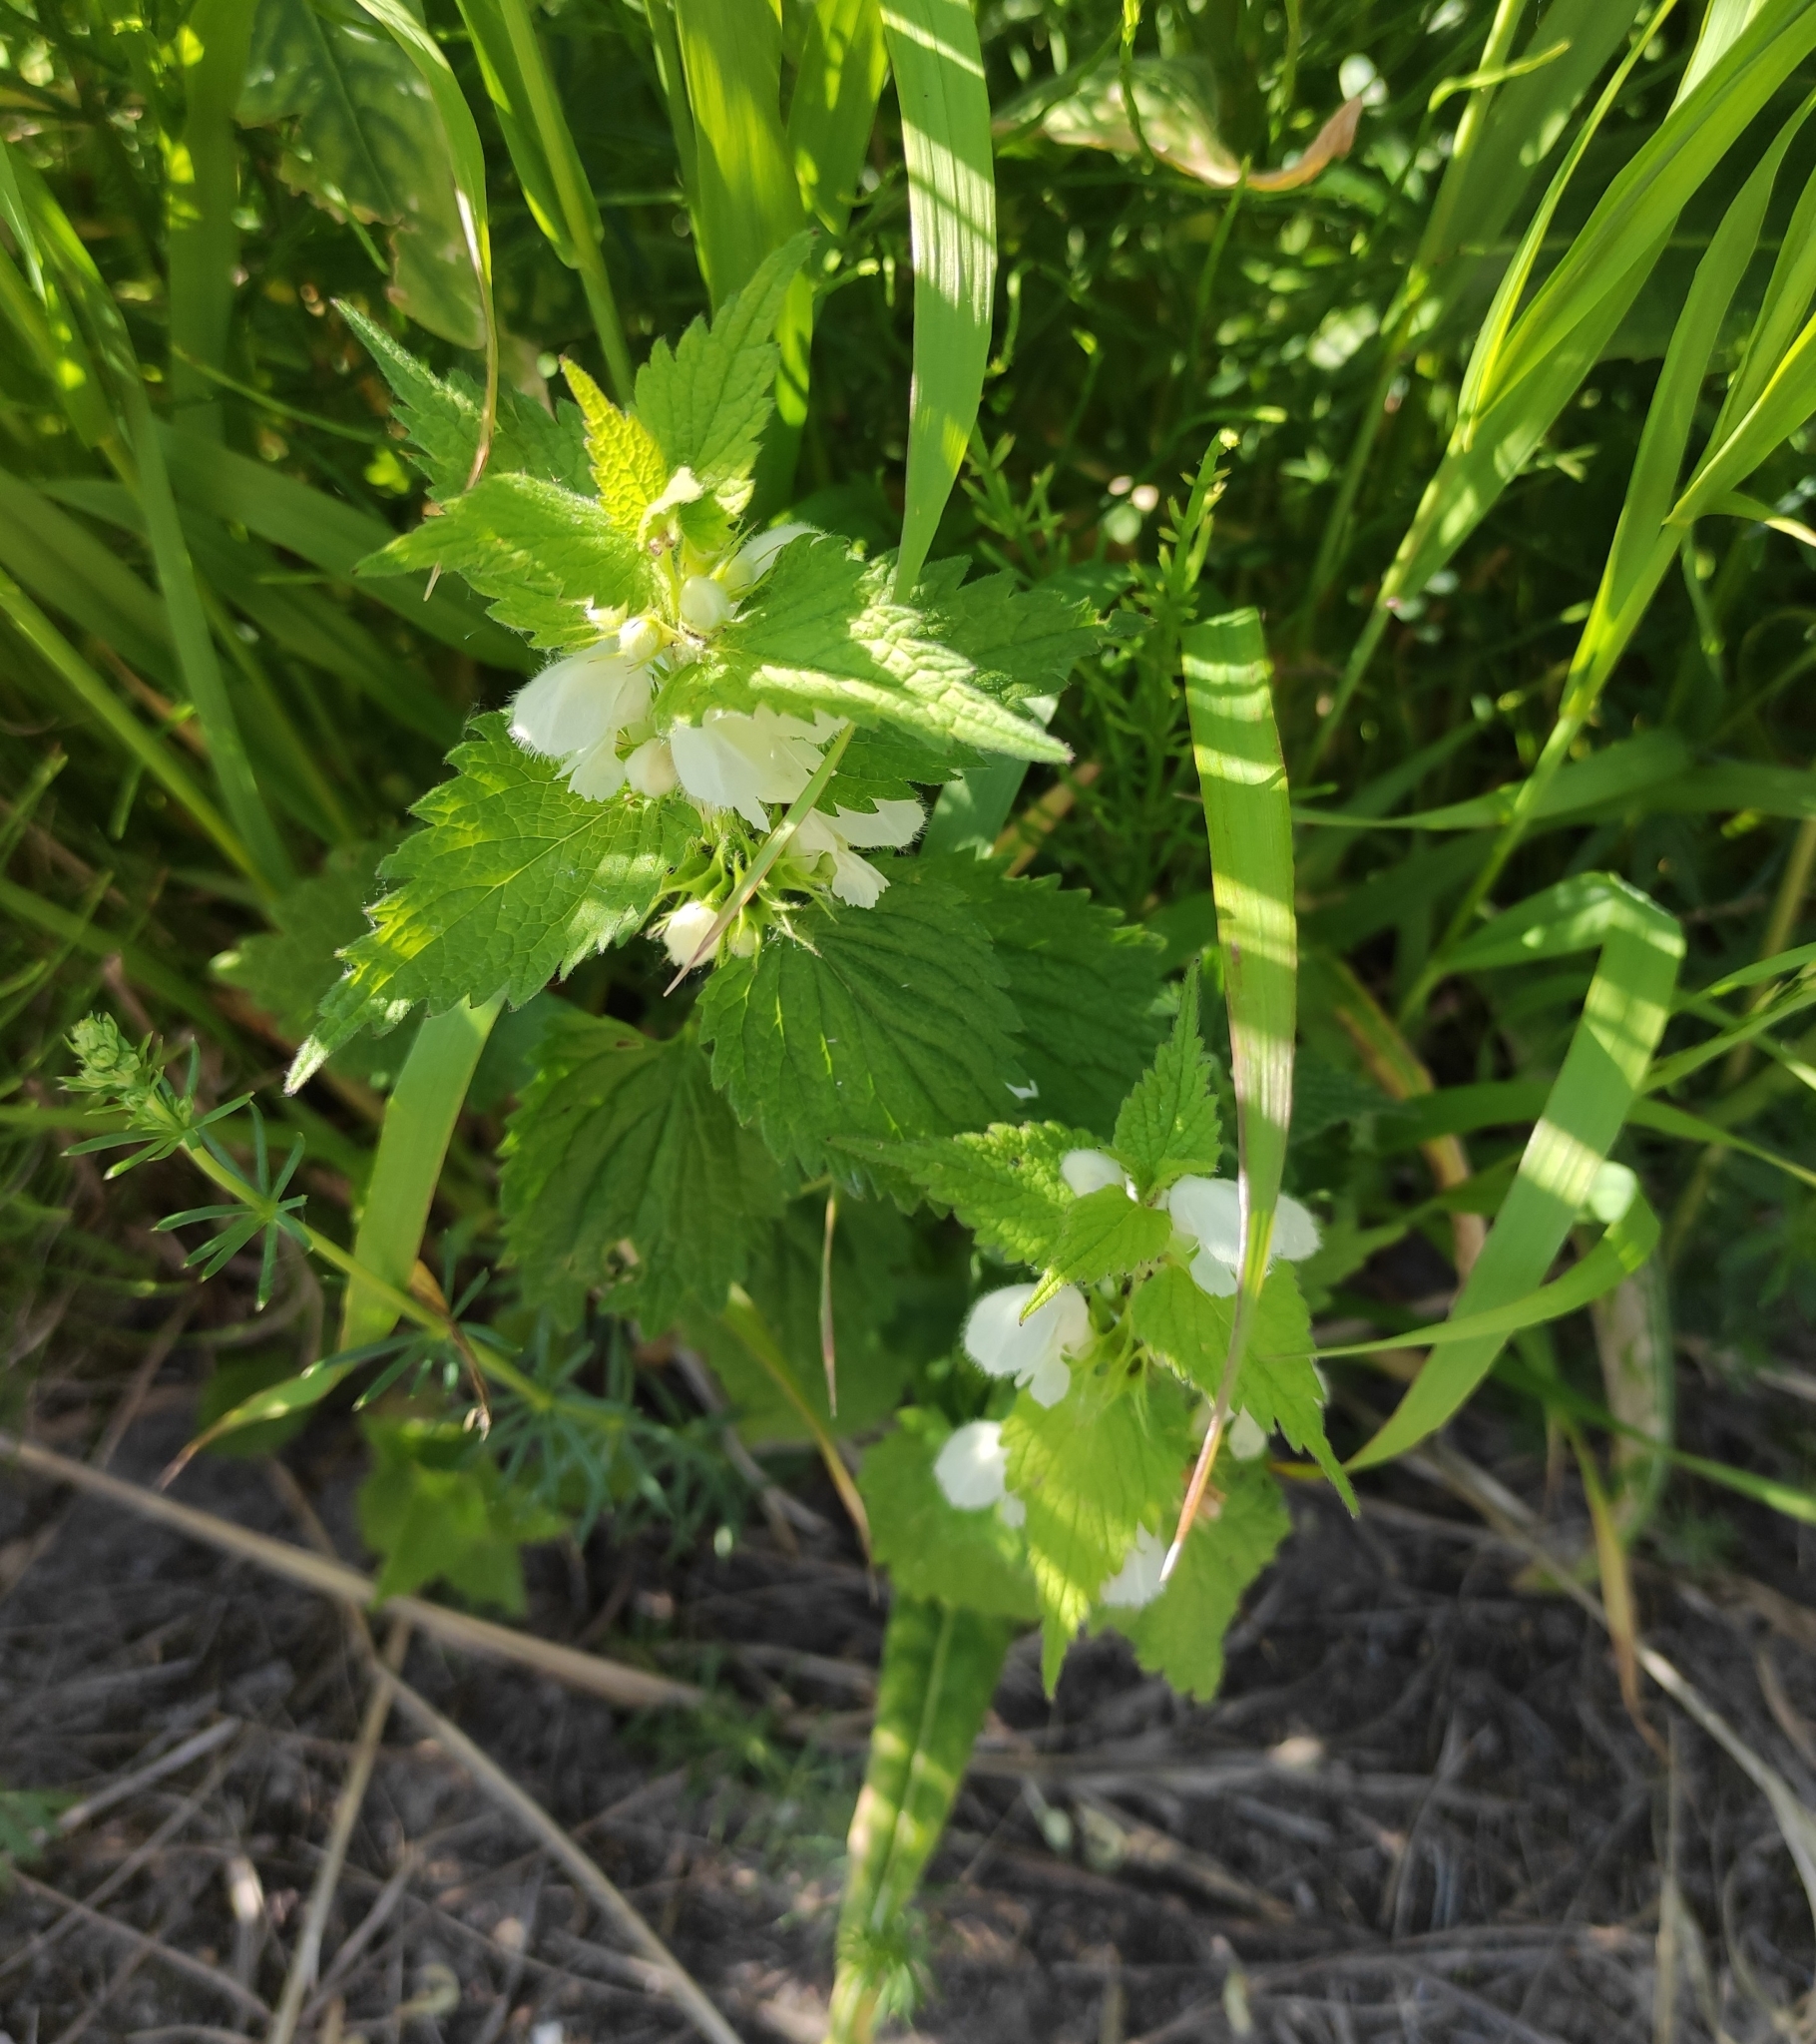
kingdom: Plantae
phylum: Tracheophyta
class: Magnoliopsida
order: Lamiales
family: Lamiaceae
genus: Lamium
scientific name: Lamium album
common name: White dead-nettle
